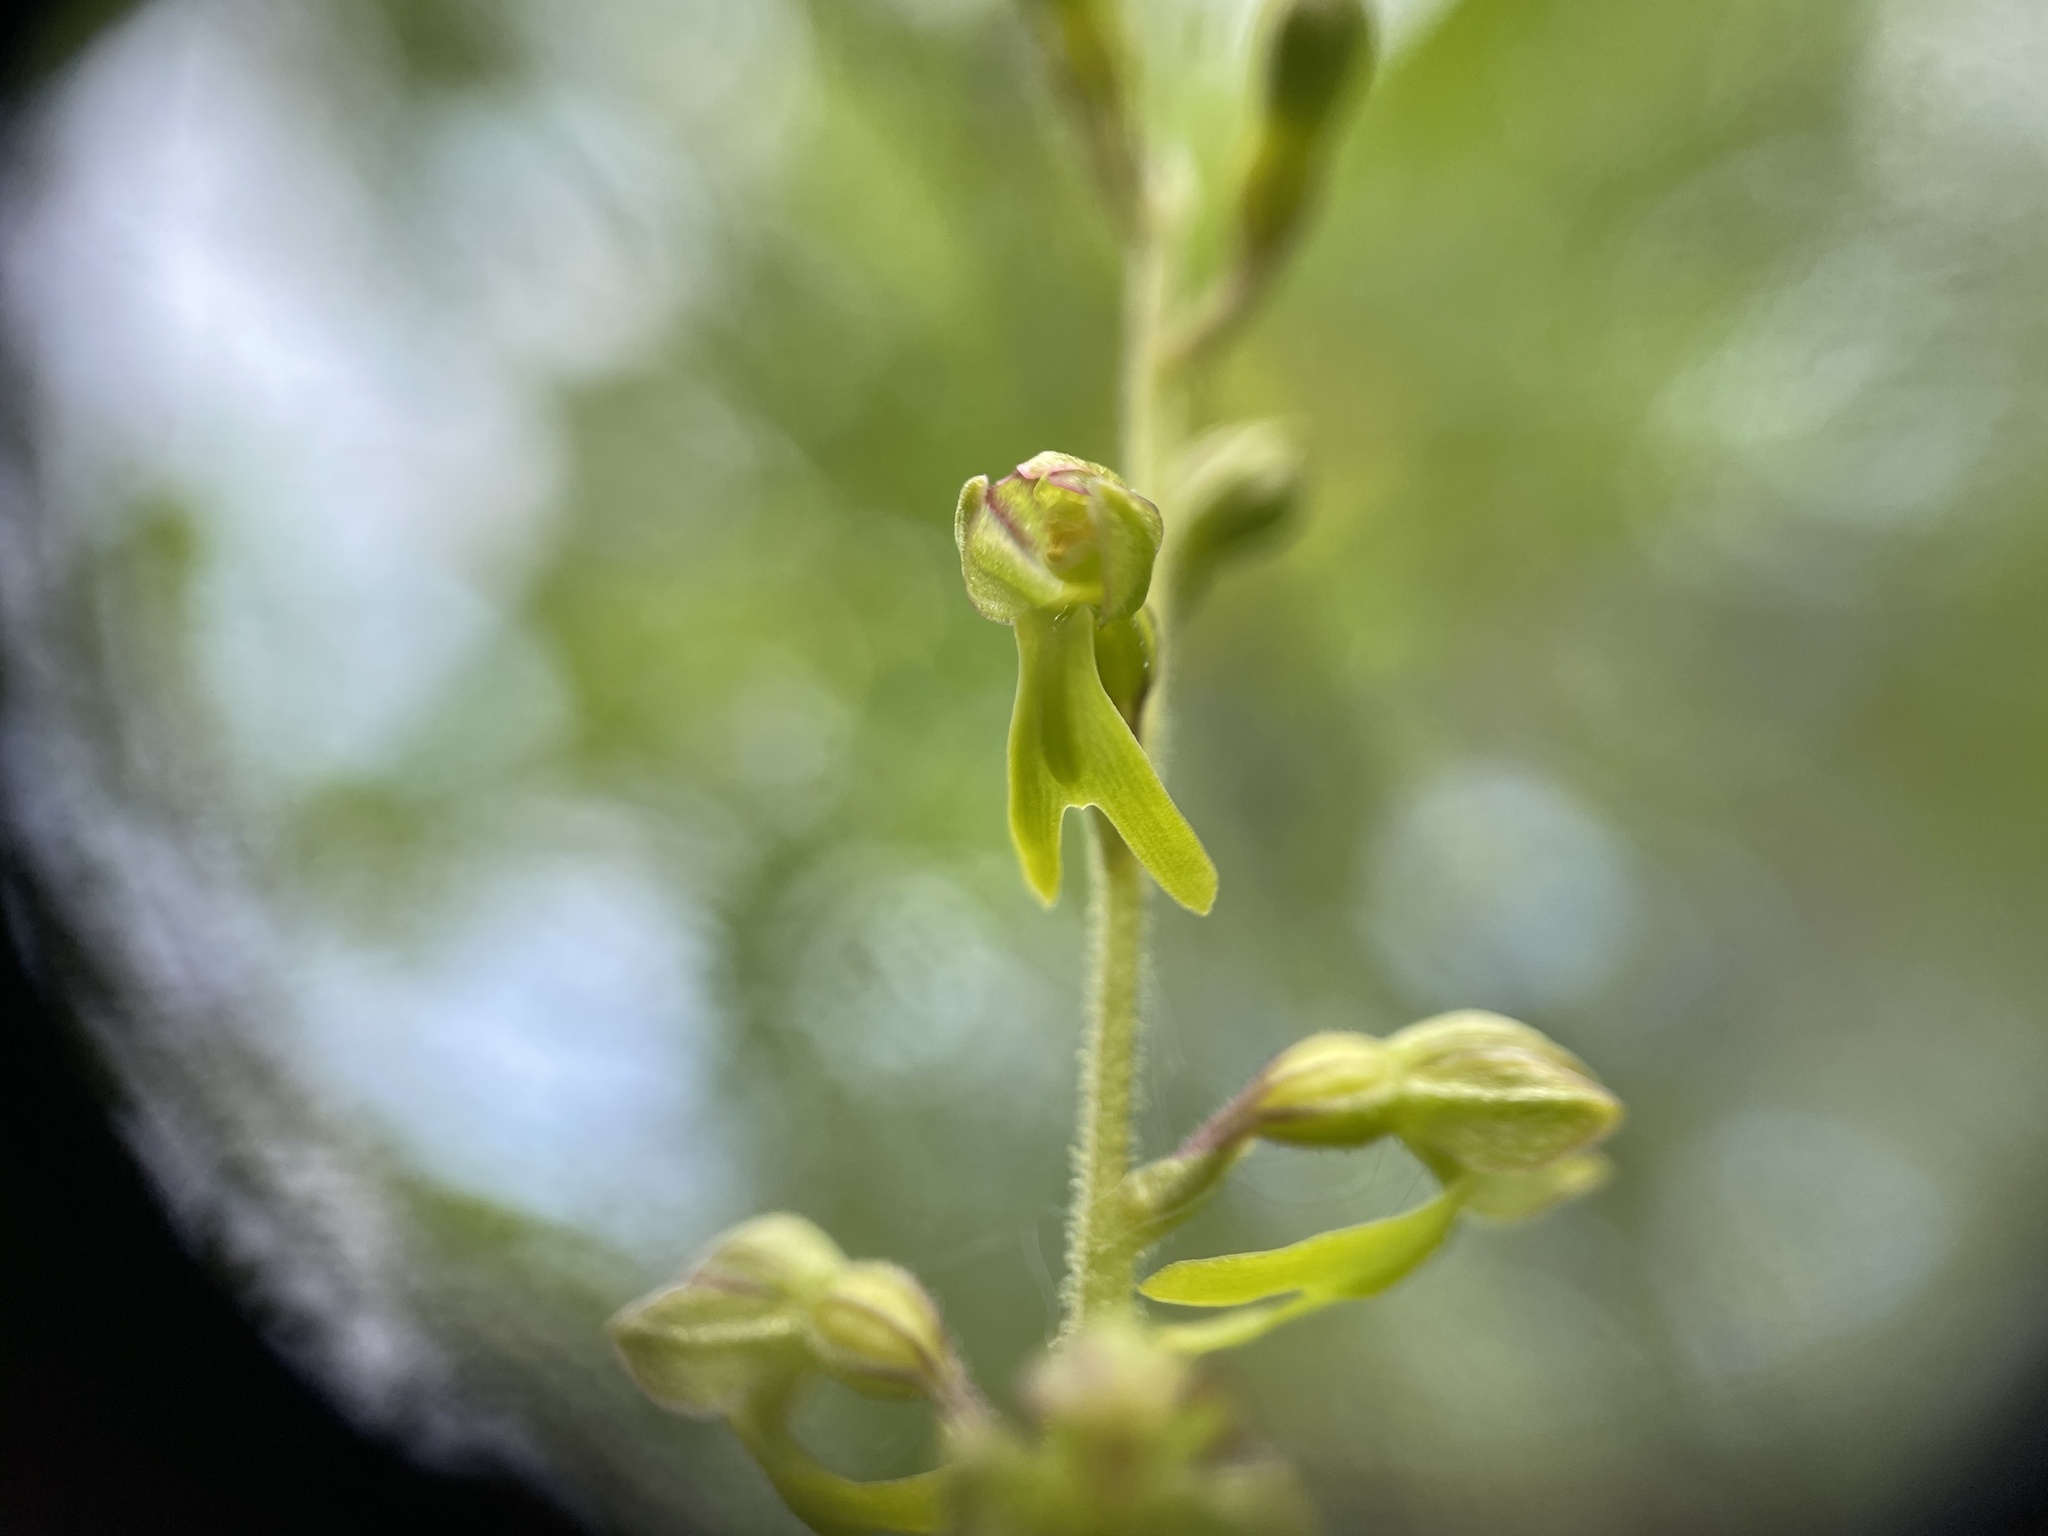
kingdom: Plantae
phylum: Tracheophyta
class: Liliopsida
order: Asparagales
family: Orchidaceae
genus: Neottia
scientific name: Neottia ovata
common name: Common twayblade
